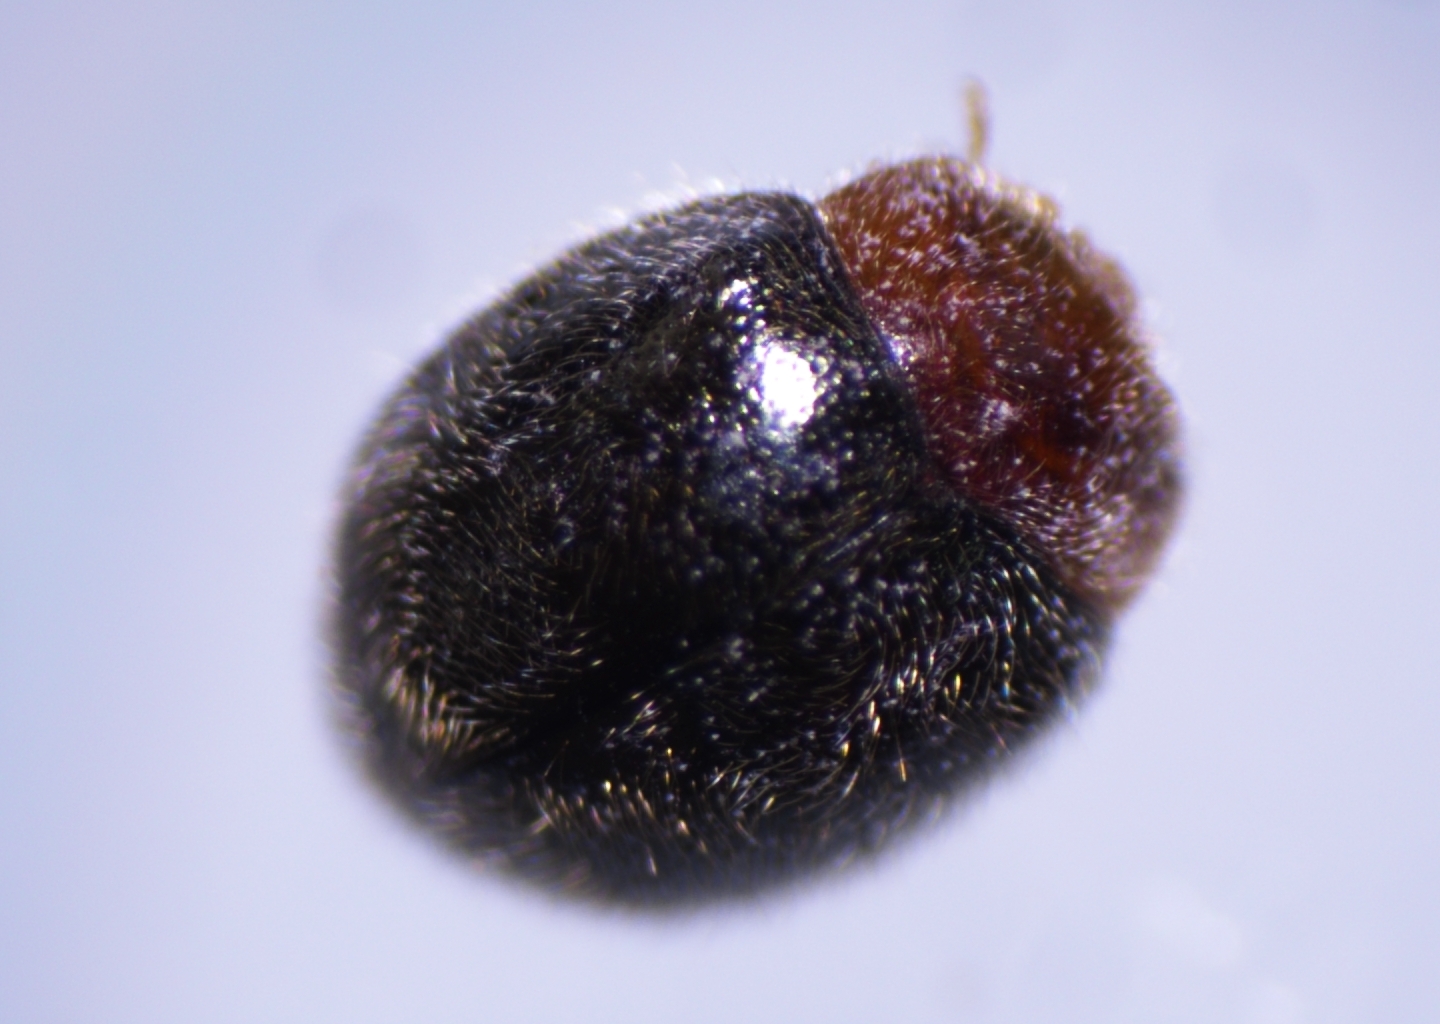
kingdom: Animalia
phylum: Arthropoda
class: Insecta
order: Coleoptera
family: Coccinellidae
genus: Rhyzobius
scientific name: Rhyzobius lophanthae
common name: Scale-eating ladybird beetle
